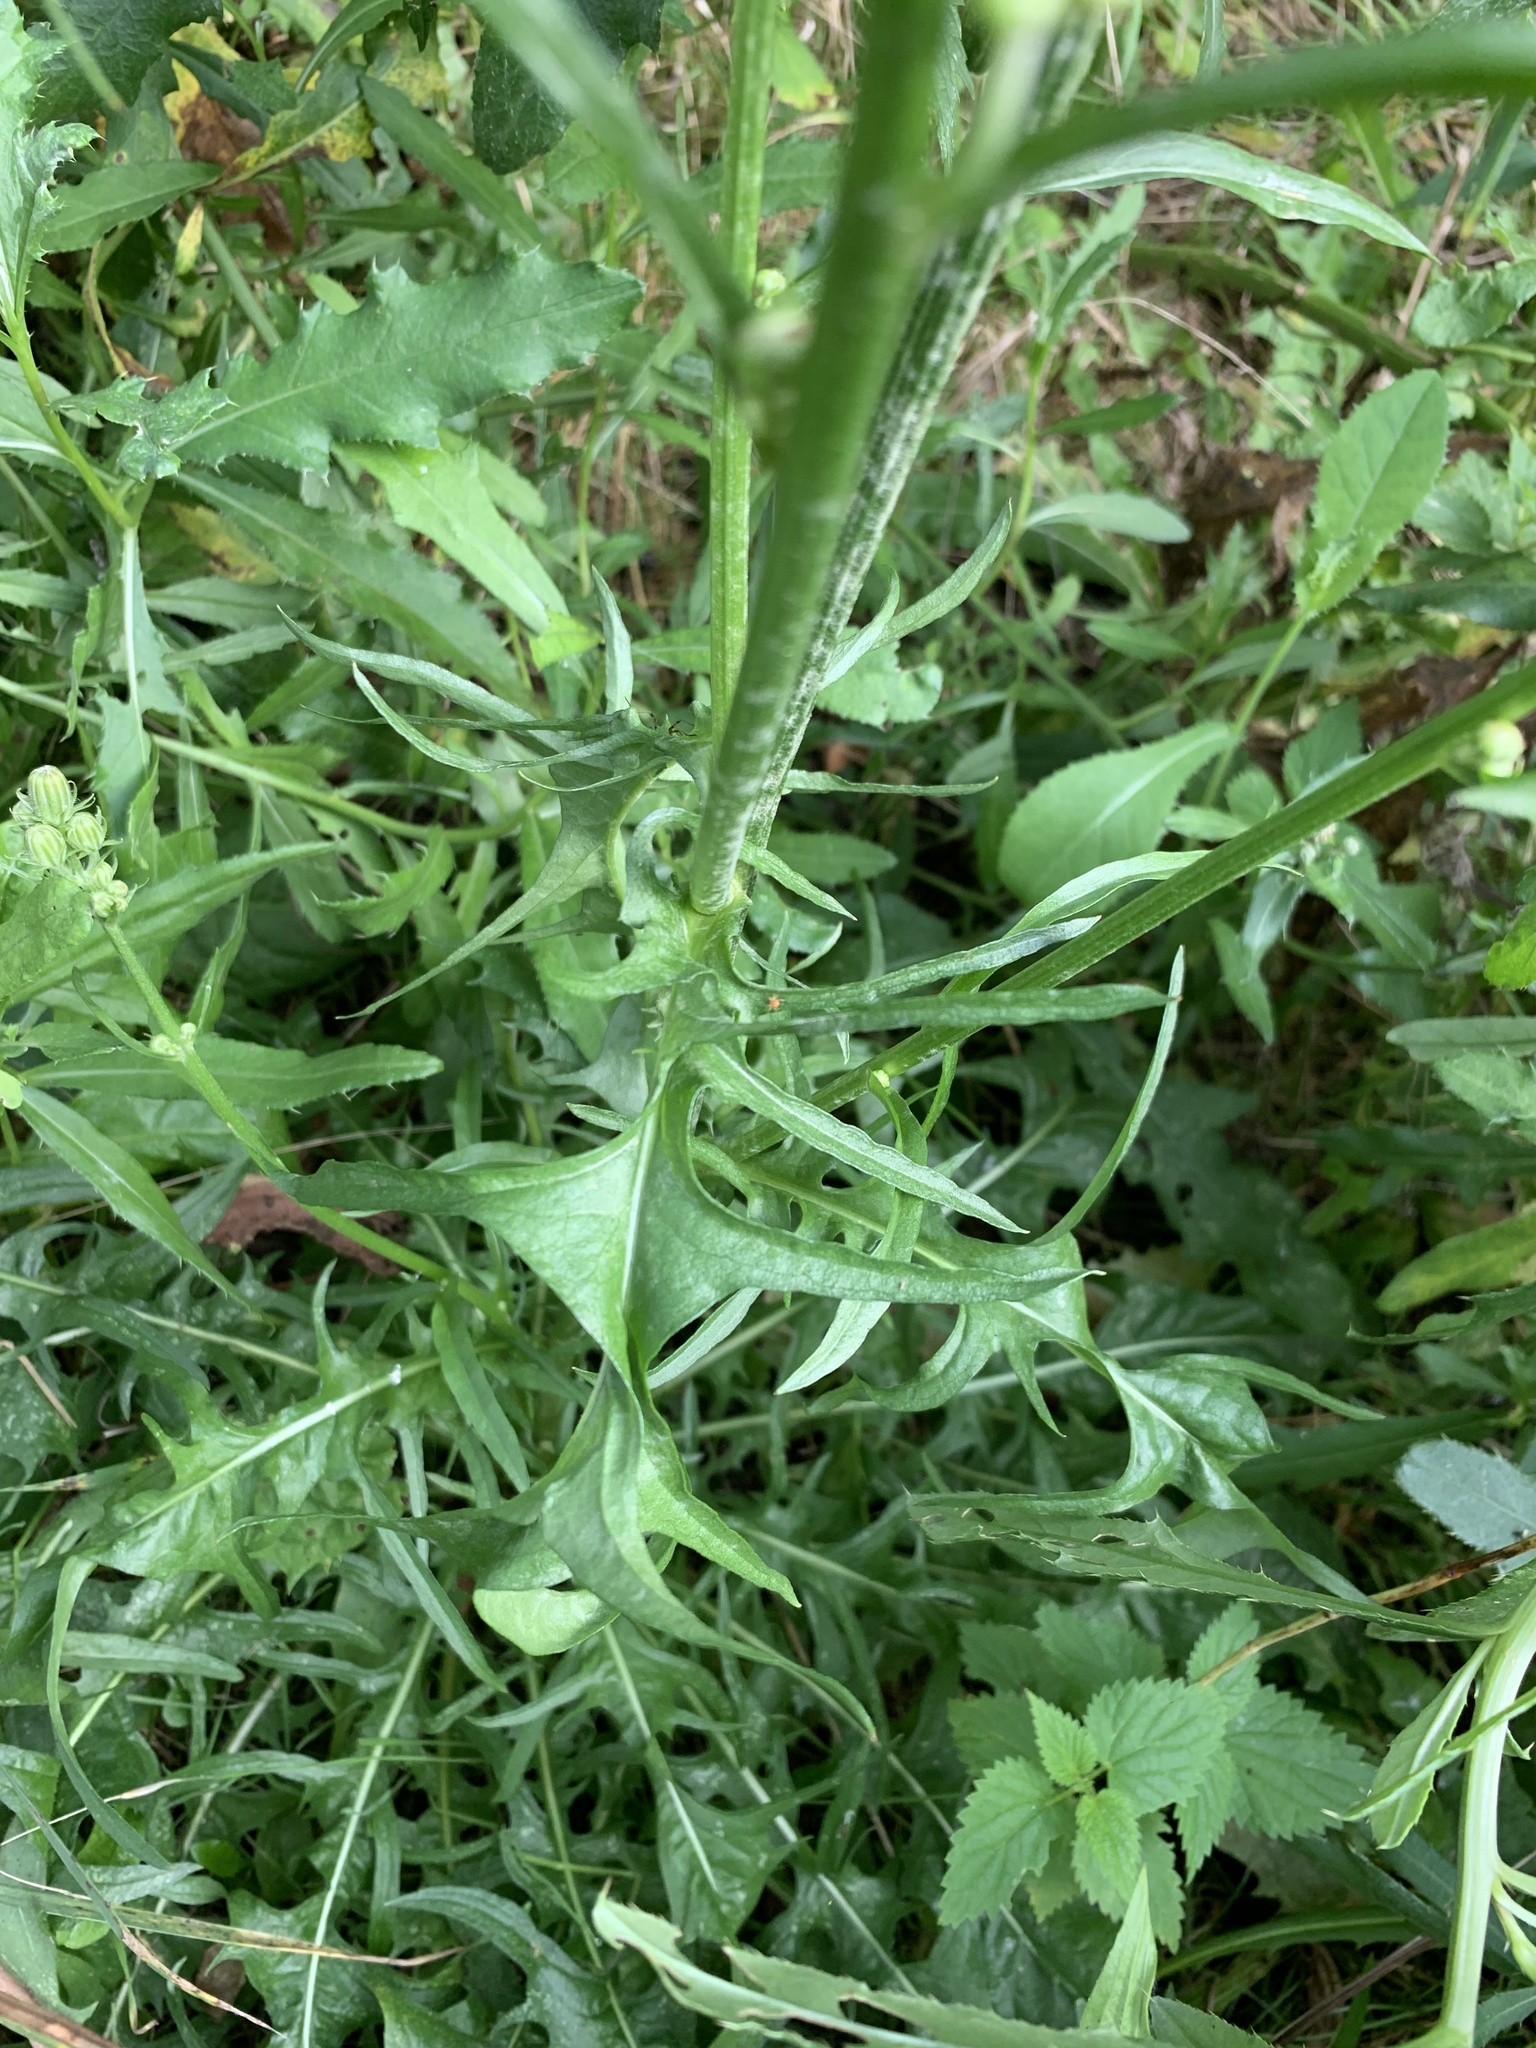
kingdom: Plantae
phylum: Tracheophyta
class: Magnoliopsida
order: Asterales
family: Asteraceae
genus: Crepis
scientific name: Crepis biennis
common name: Rough hawk's-beard
